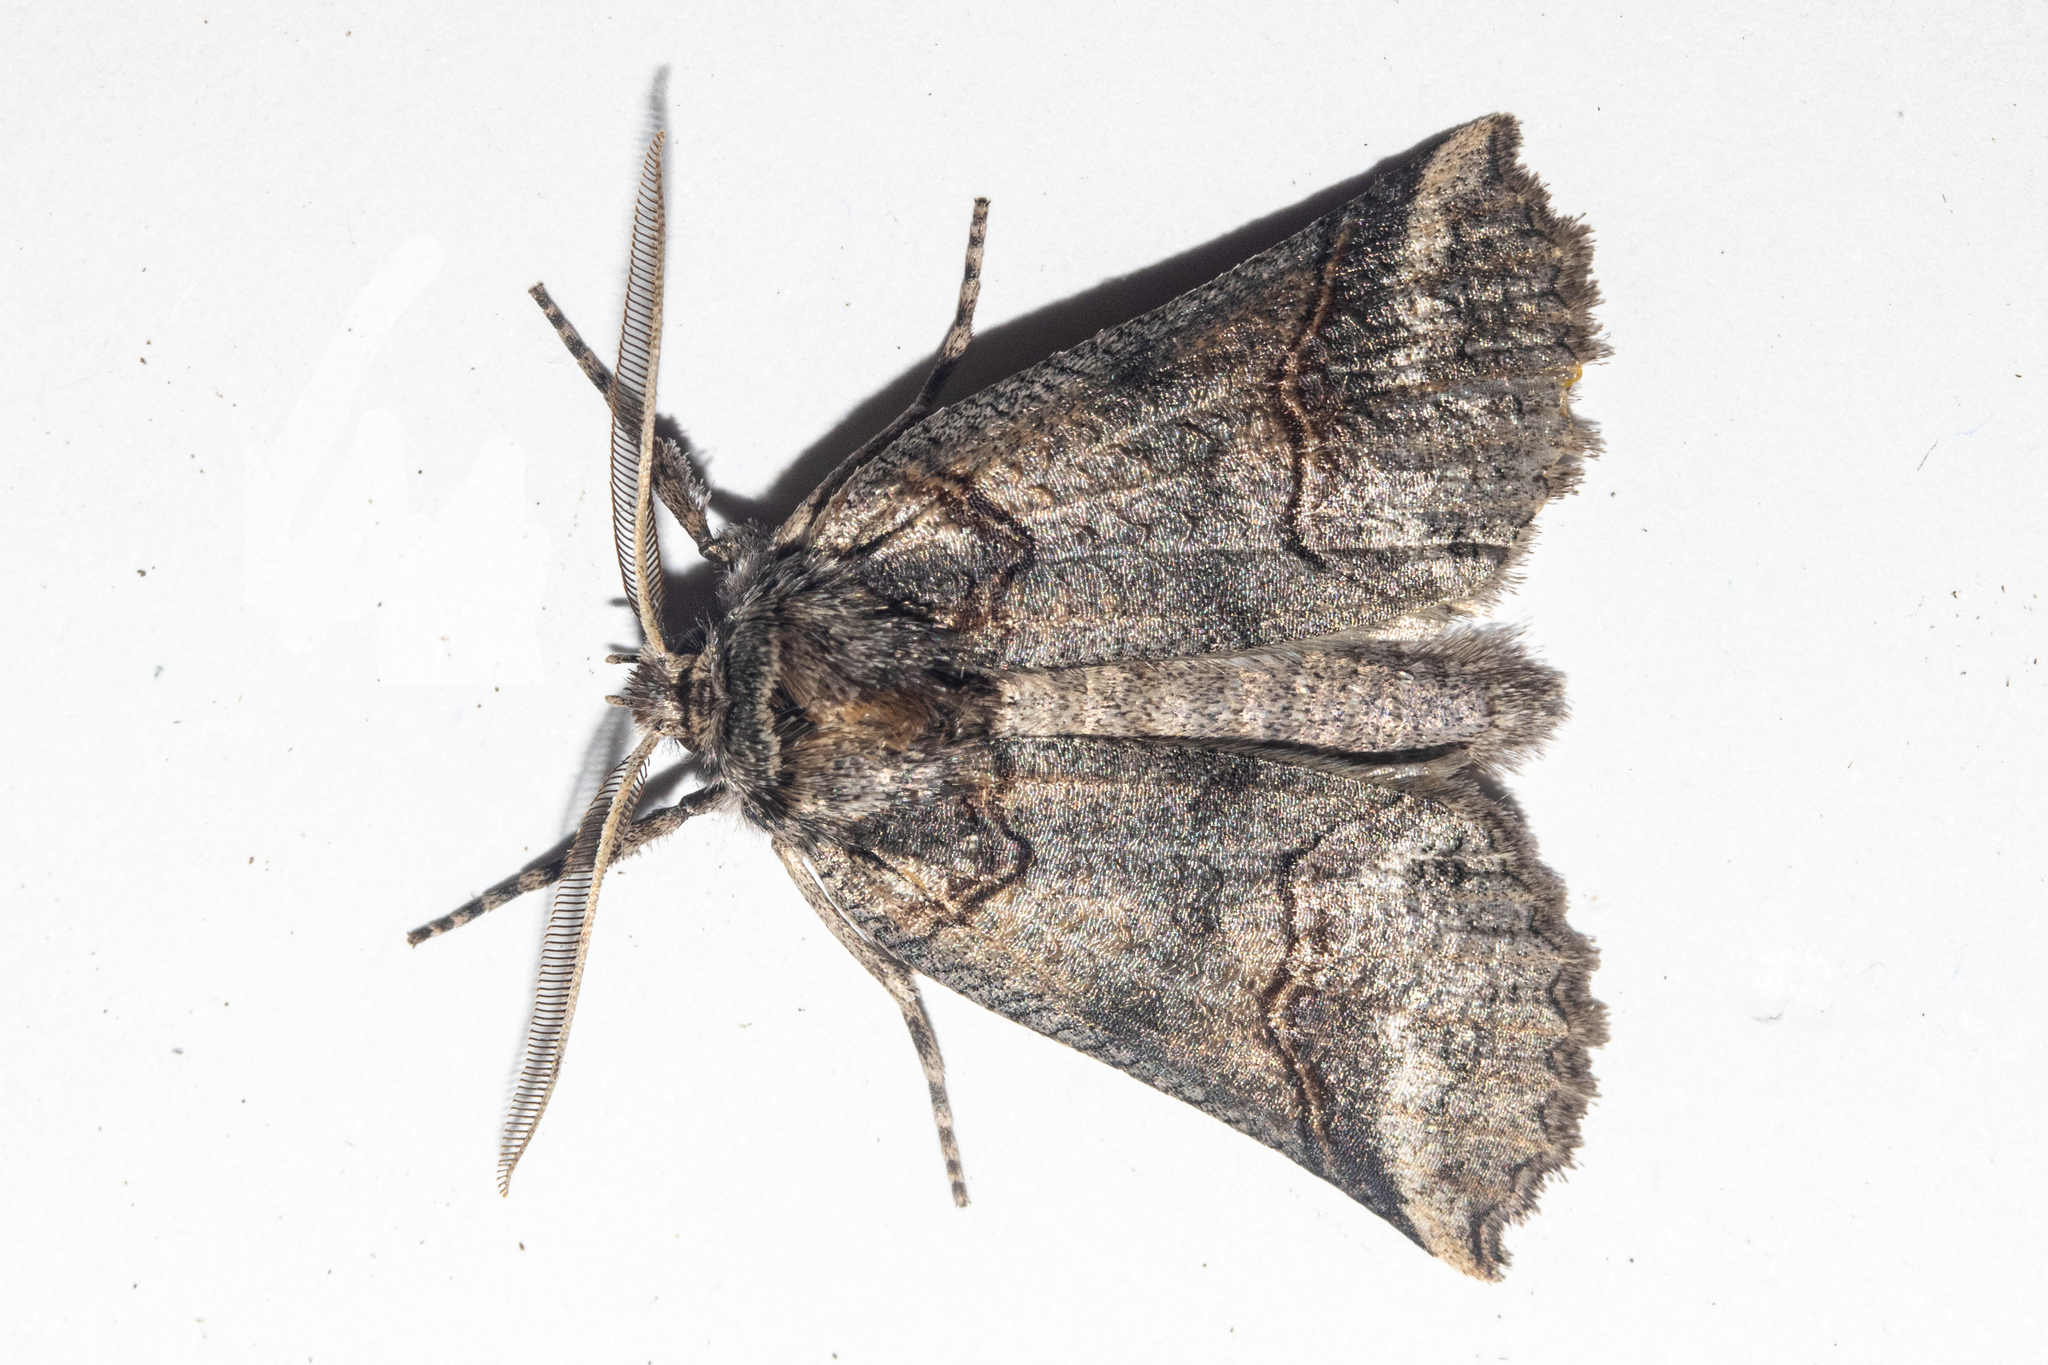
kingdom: Animalia
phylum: Arthropoda
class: Insecta
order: Lepidoptera
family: Geometridae
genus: Declana
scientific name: Declana
